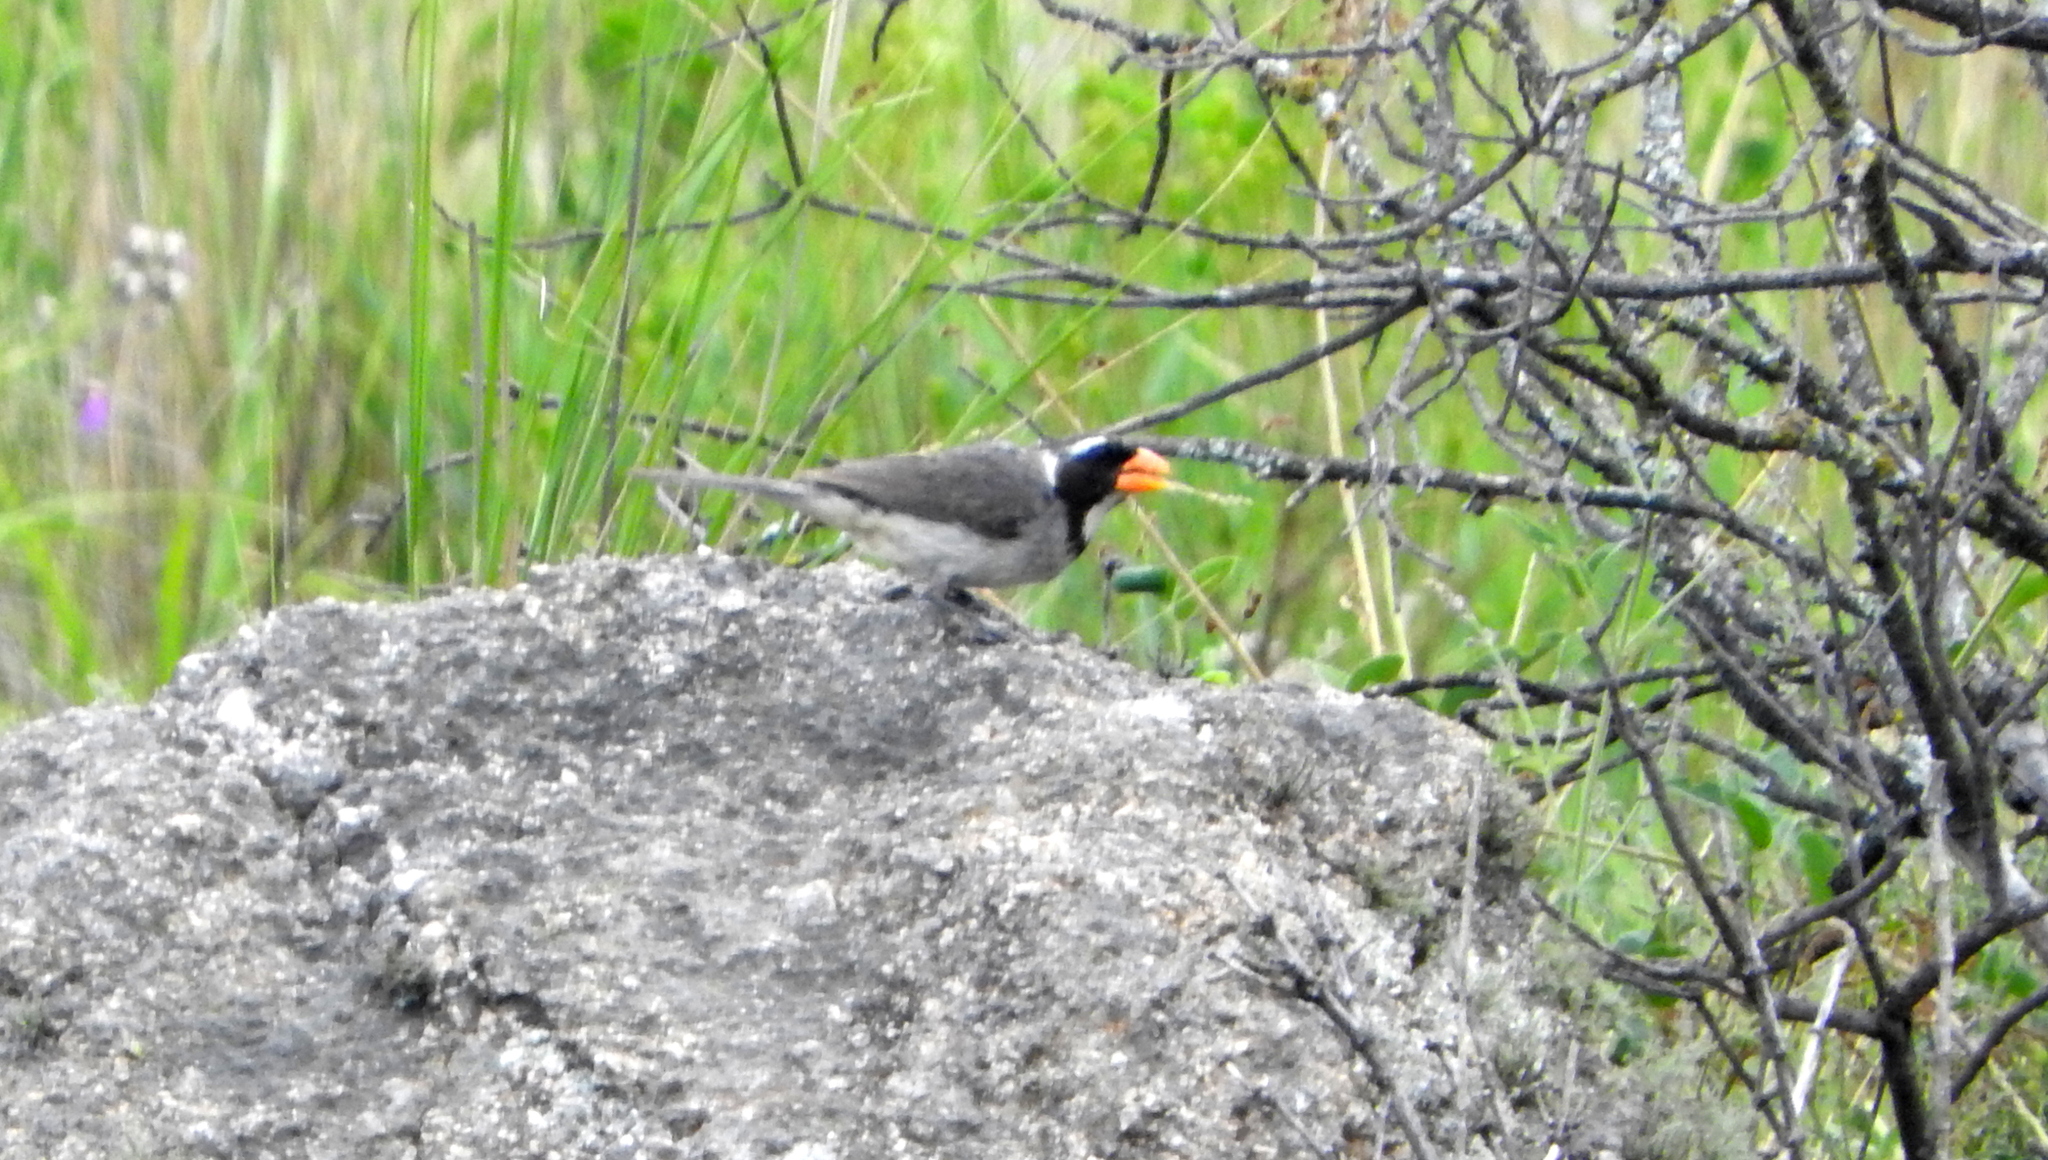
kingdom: Animalia
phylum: Chordata
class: Aves
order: Passeriformes
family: Thraupidae
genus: Saltator
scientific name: Saltator aurantiirostris
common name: Golden-billed saltator
